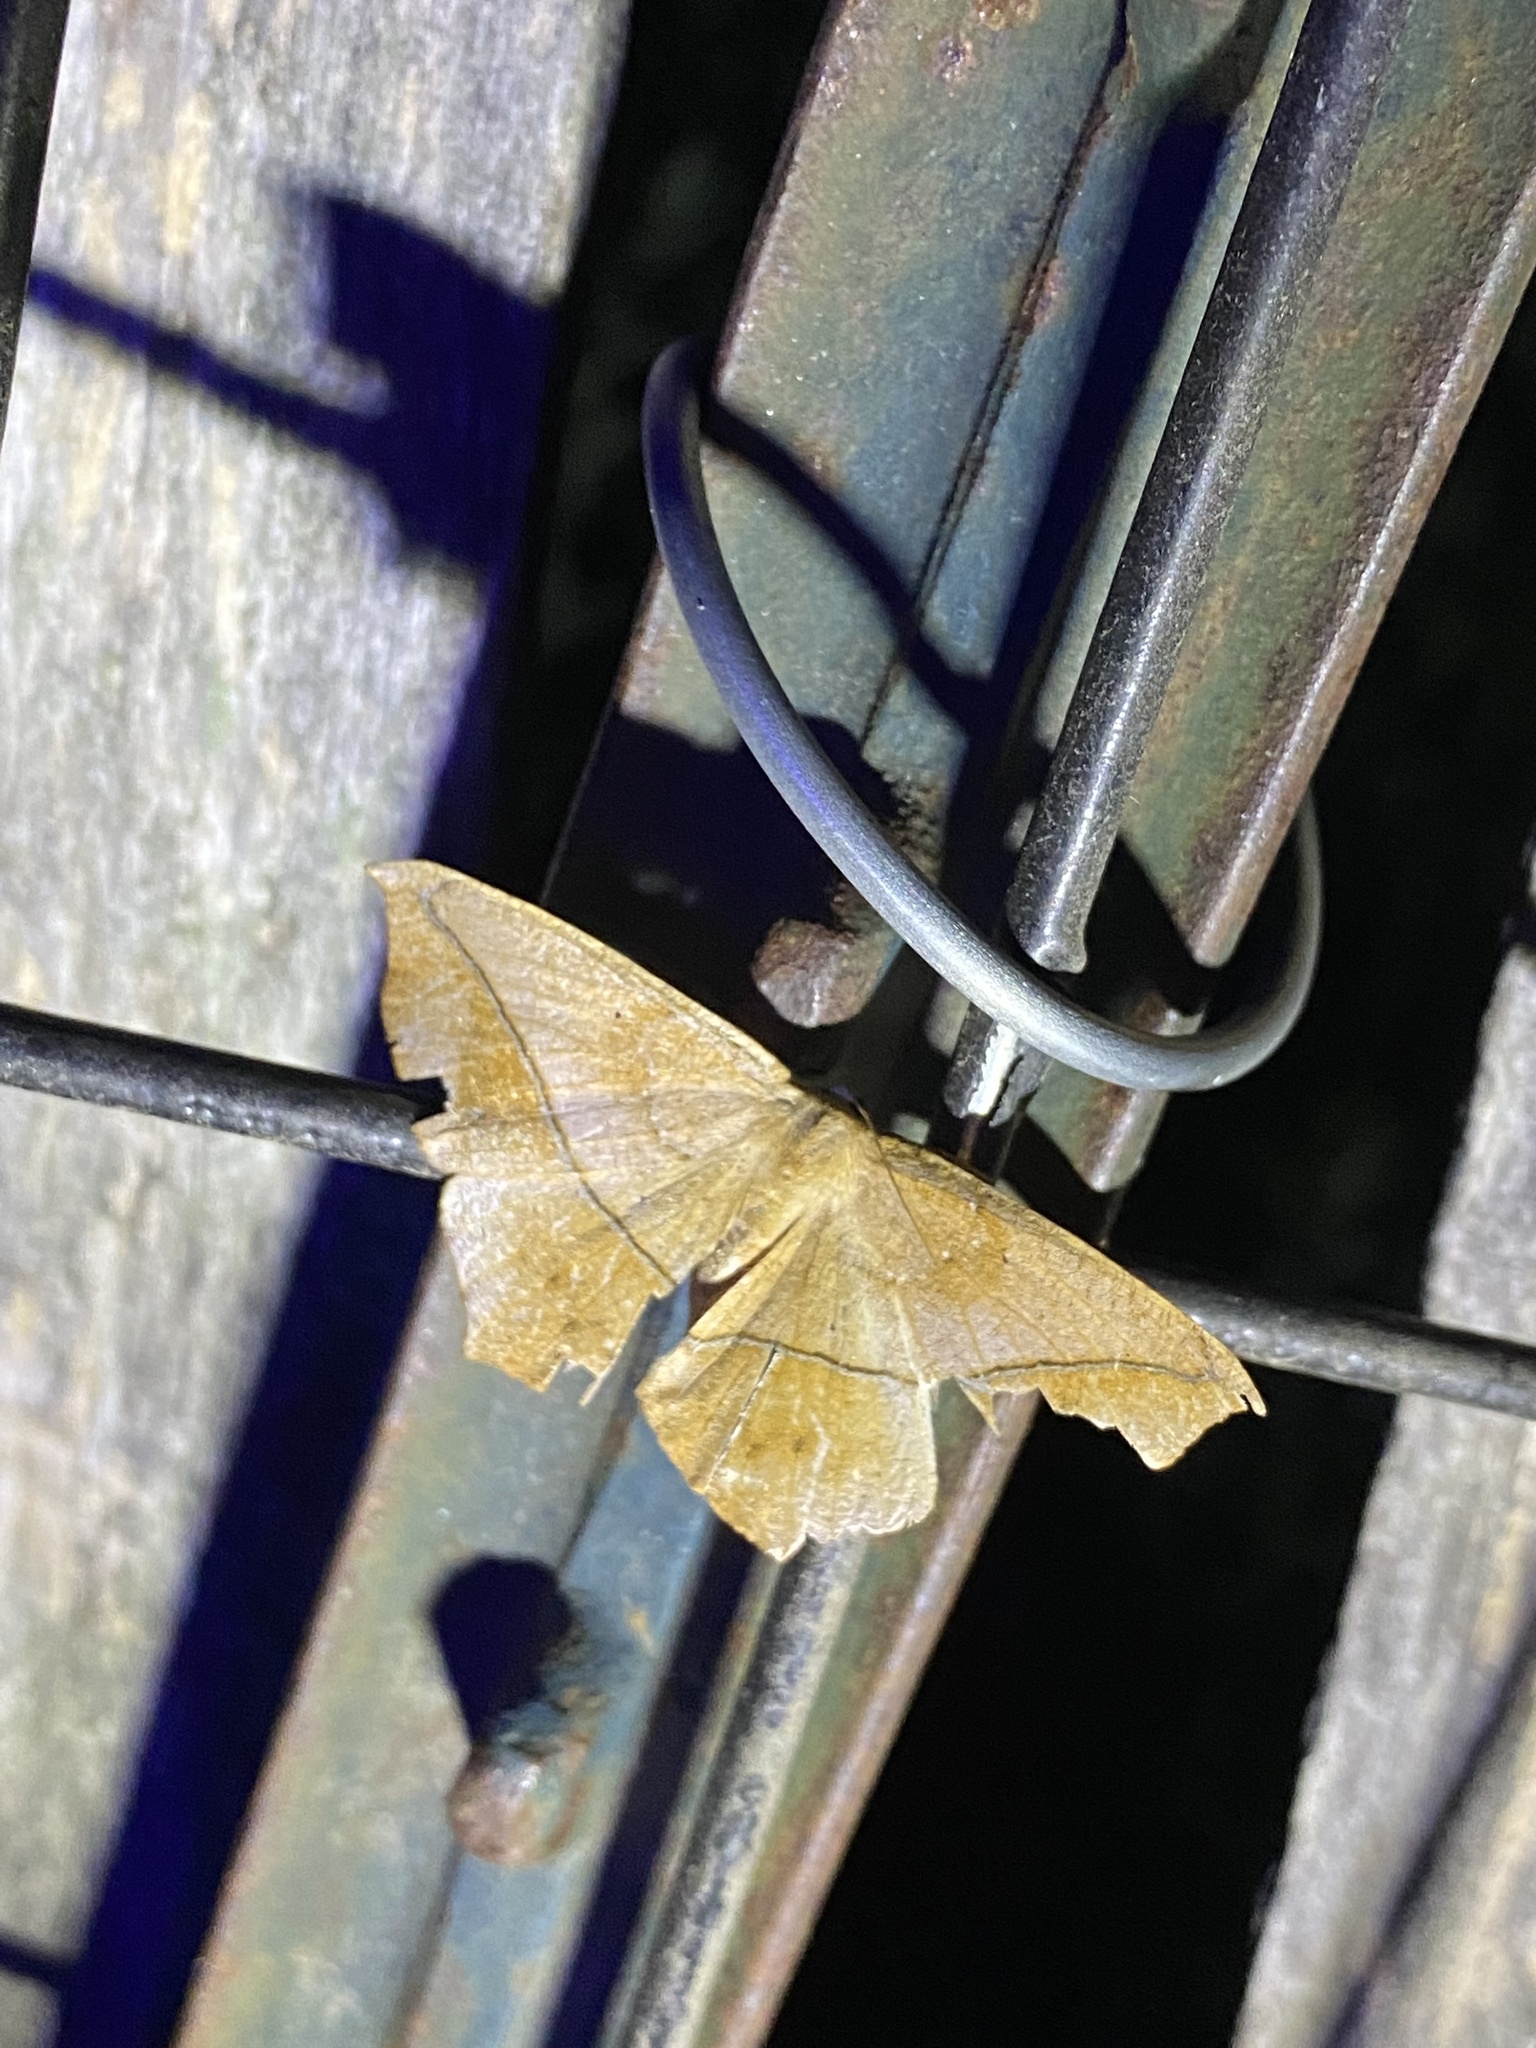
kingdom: Animalia
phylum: Arthropoda
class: Insecta
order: Lepidoptera
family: Geometridae
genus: Prochoerodes
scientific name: Prochoerodes lineola
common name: Large maple spanworm
